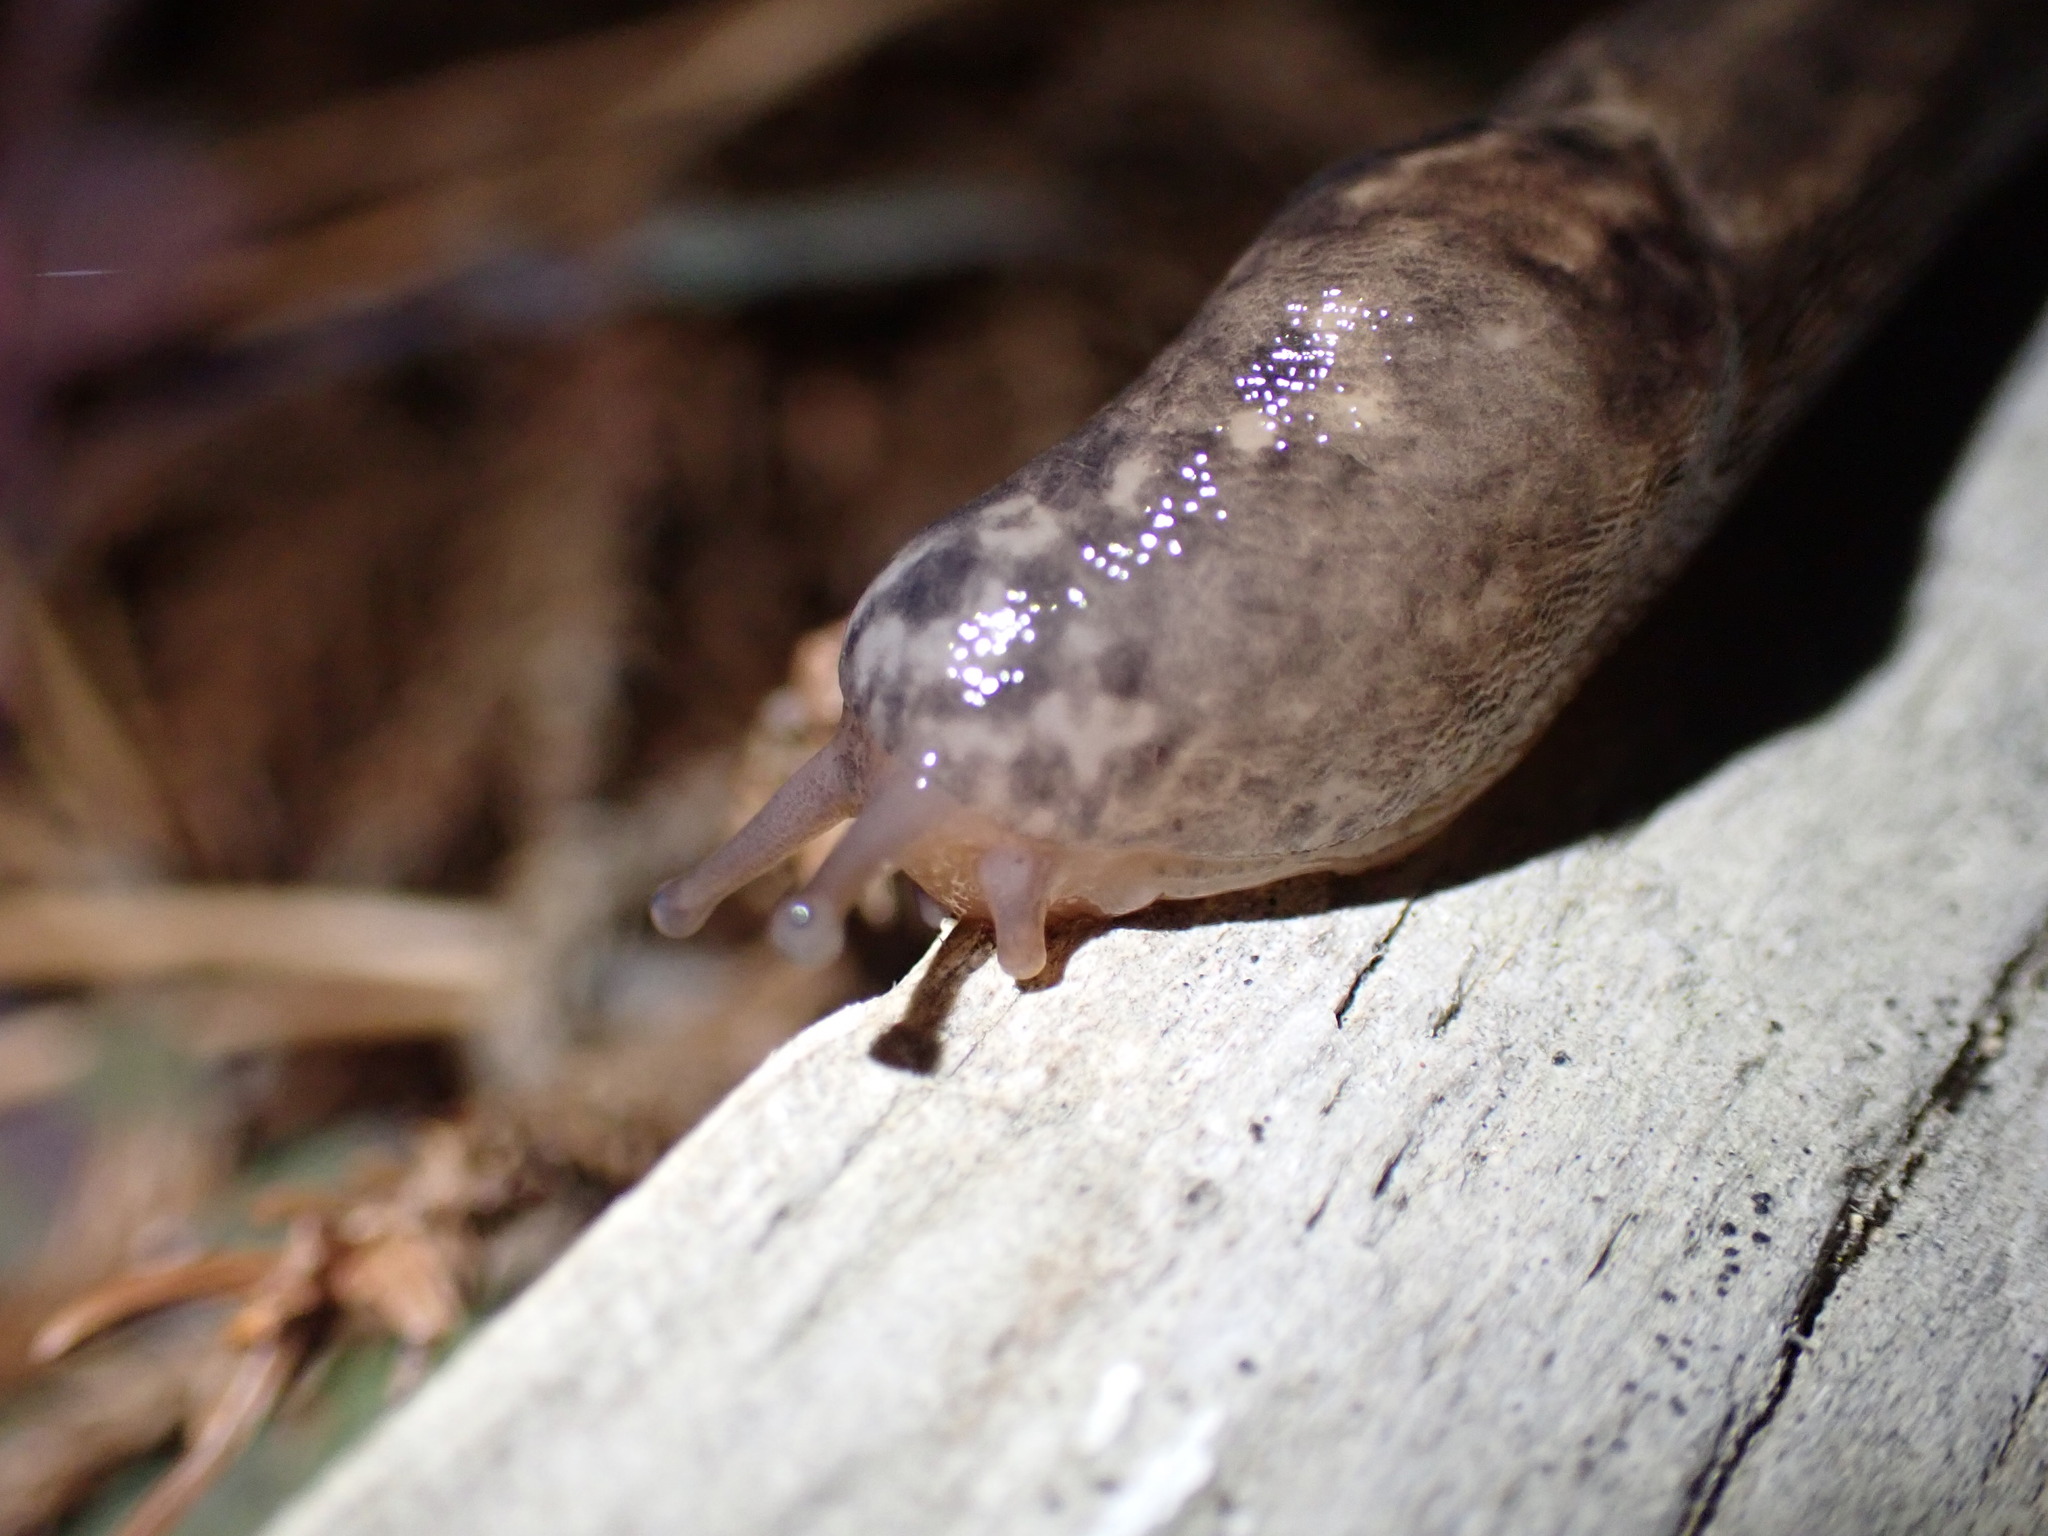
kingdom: Animalia
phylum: Mollusca
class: Gastropoda
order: Stylommatophora
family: Limacidae
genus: Limax
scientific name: Limax maximus
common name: Great grey slug
